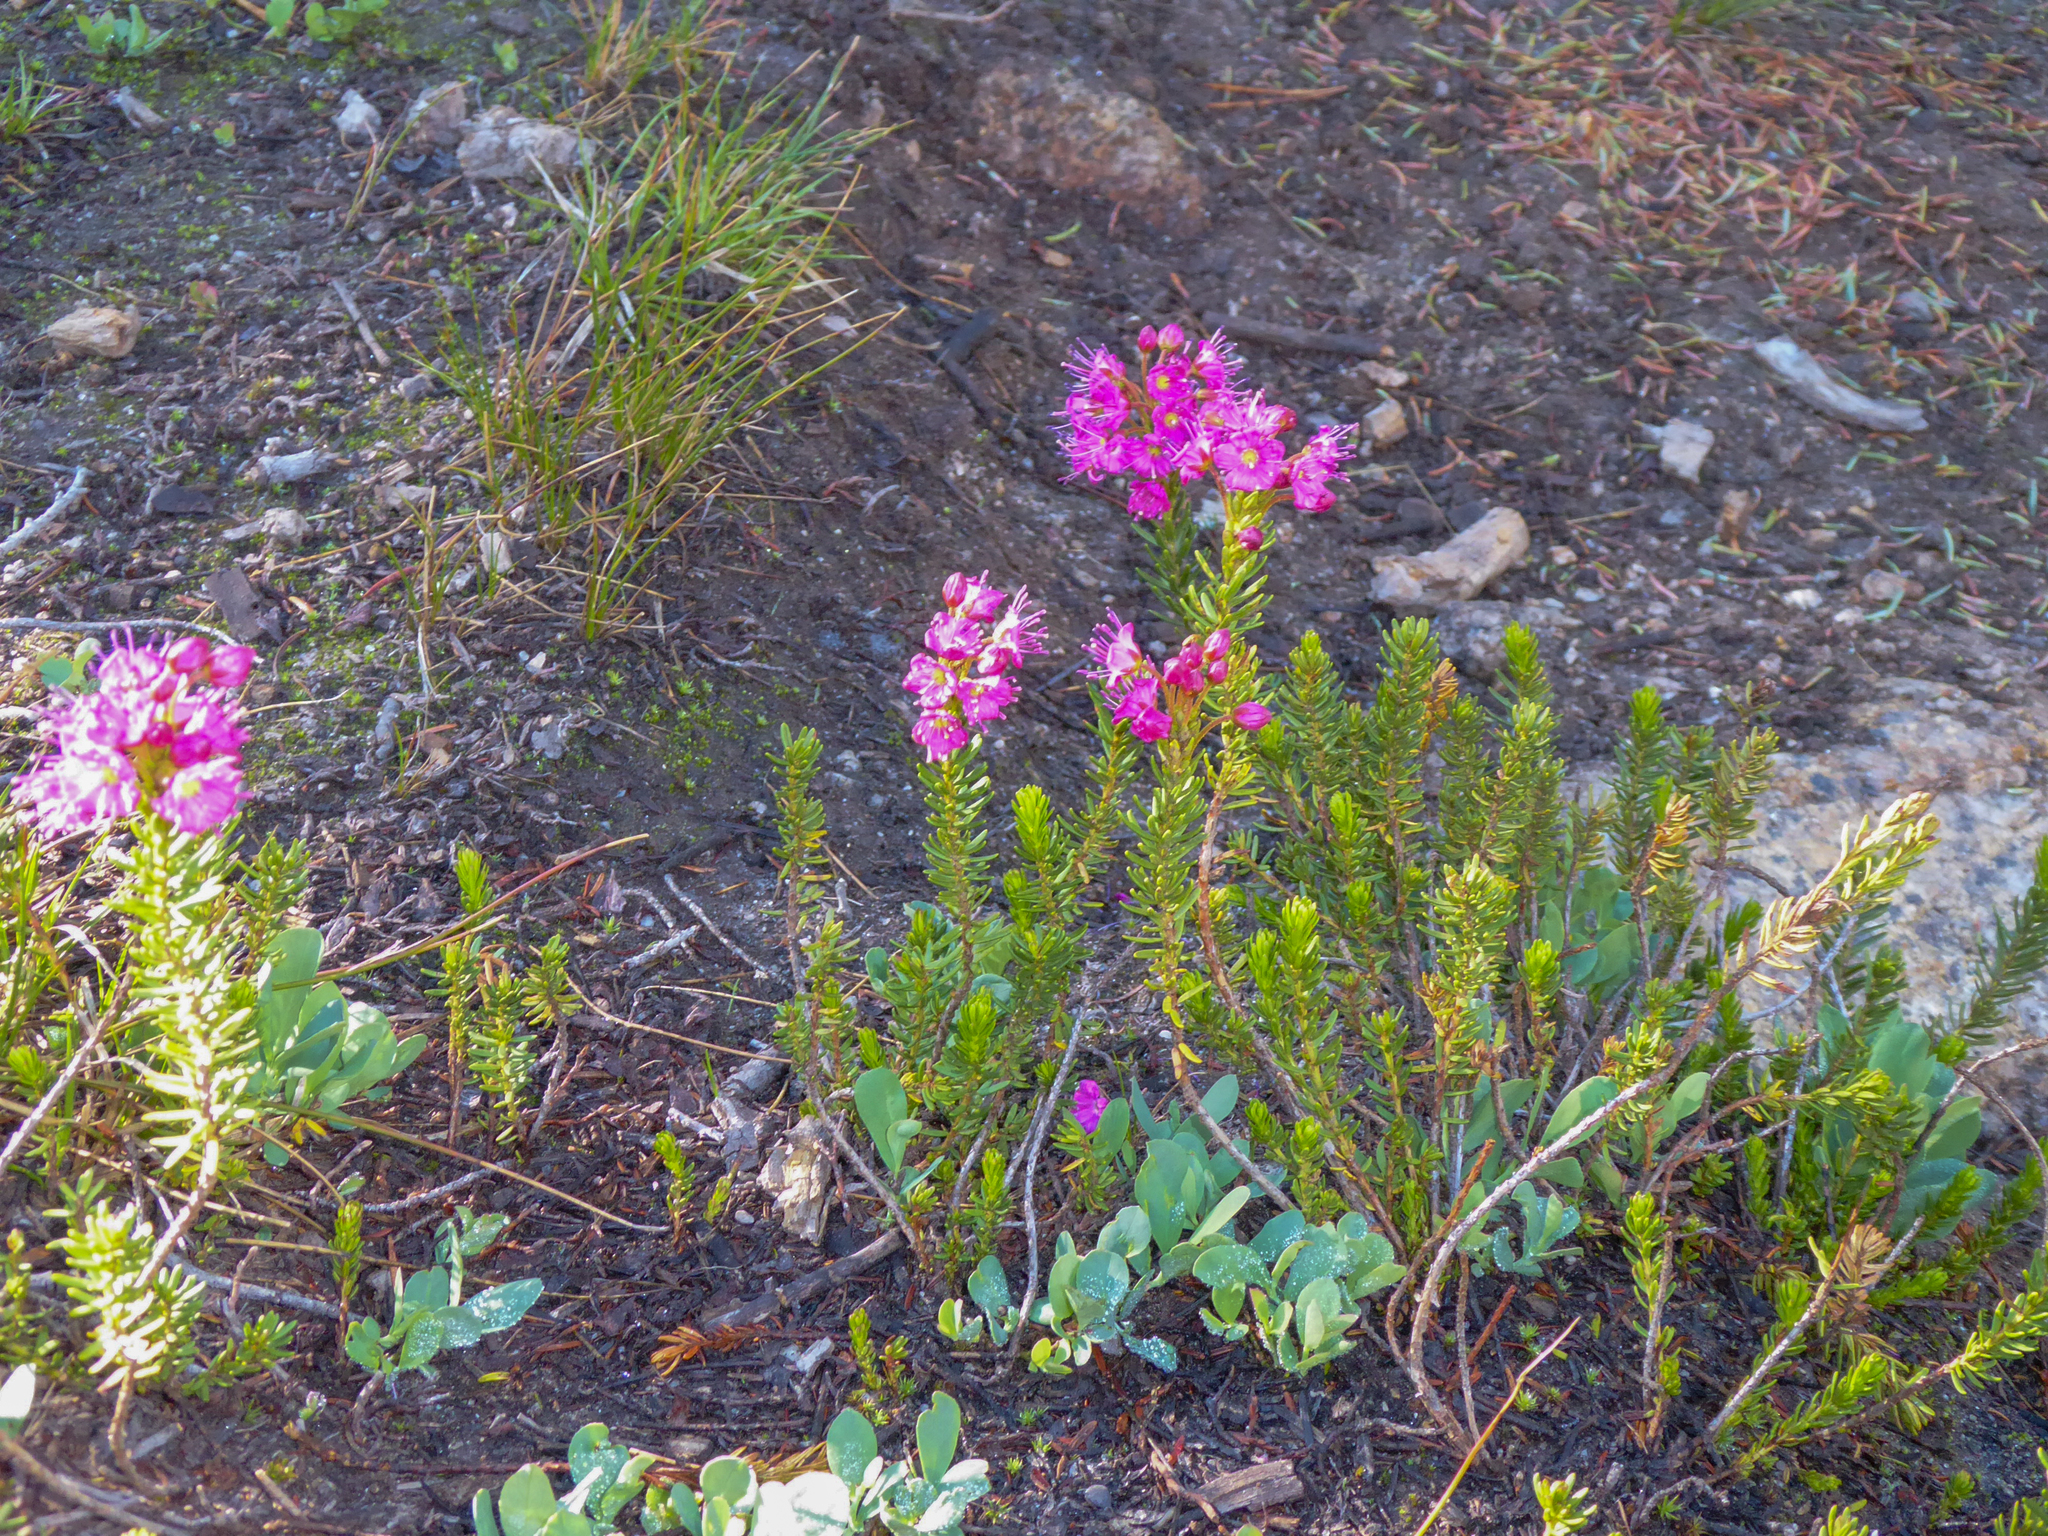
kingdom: Plantae
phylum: Tracheophyta
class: Magnoliopsida
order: Ericales
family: Ericaceae
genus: Phyllodoce
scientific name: Phyllodoce breweri
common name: Brewer's mountain-heather
